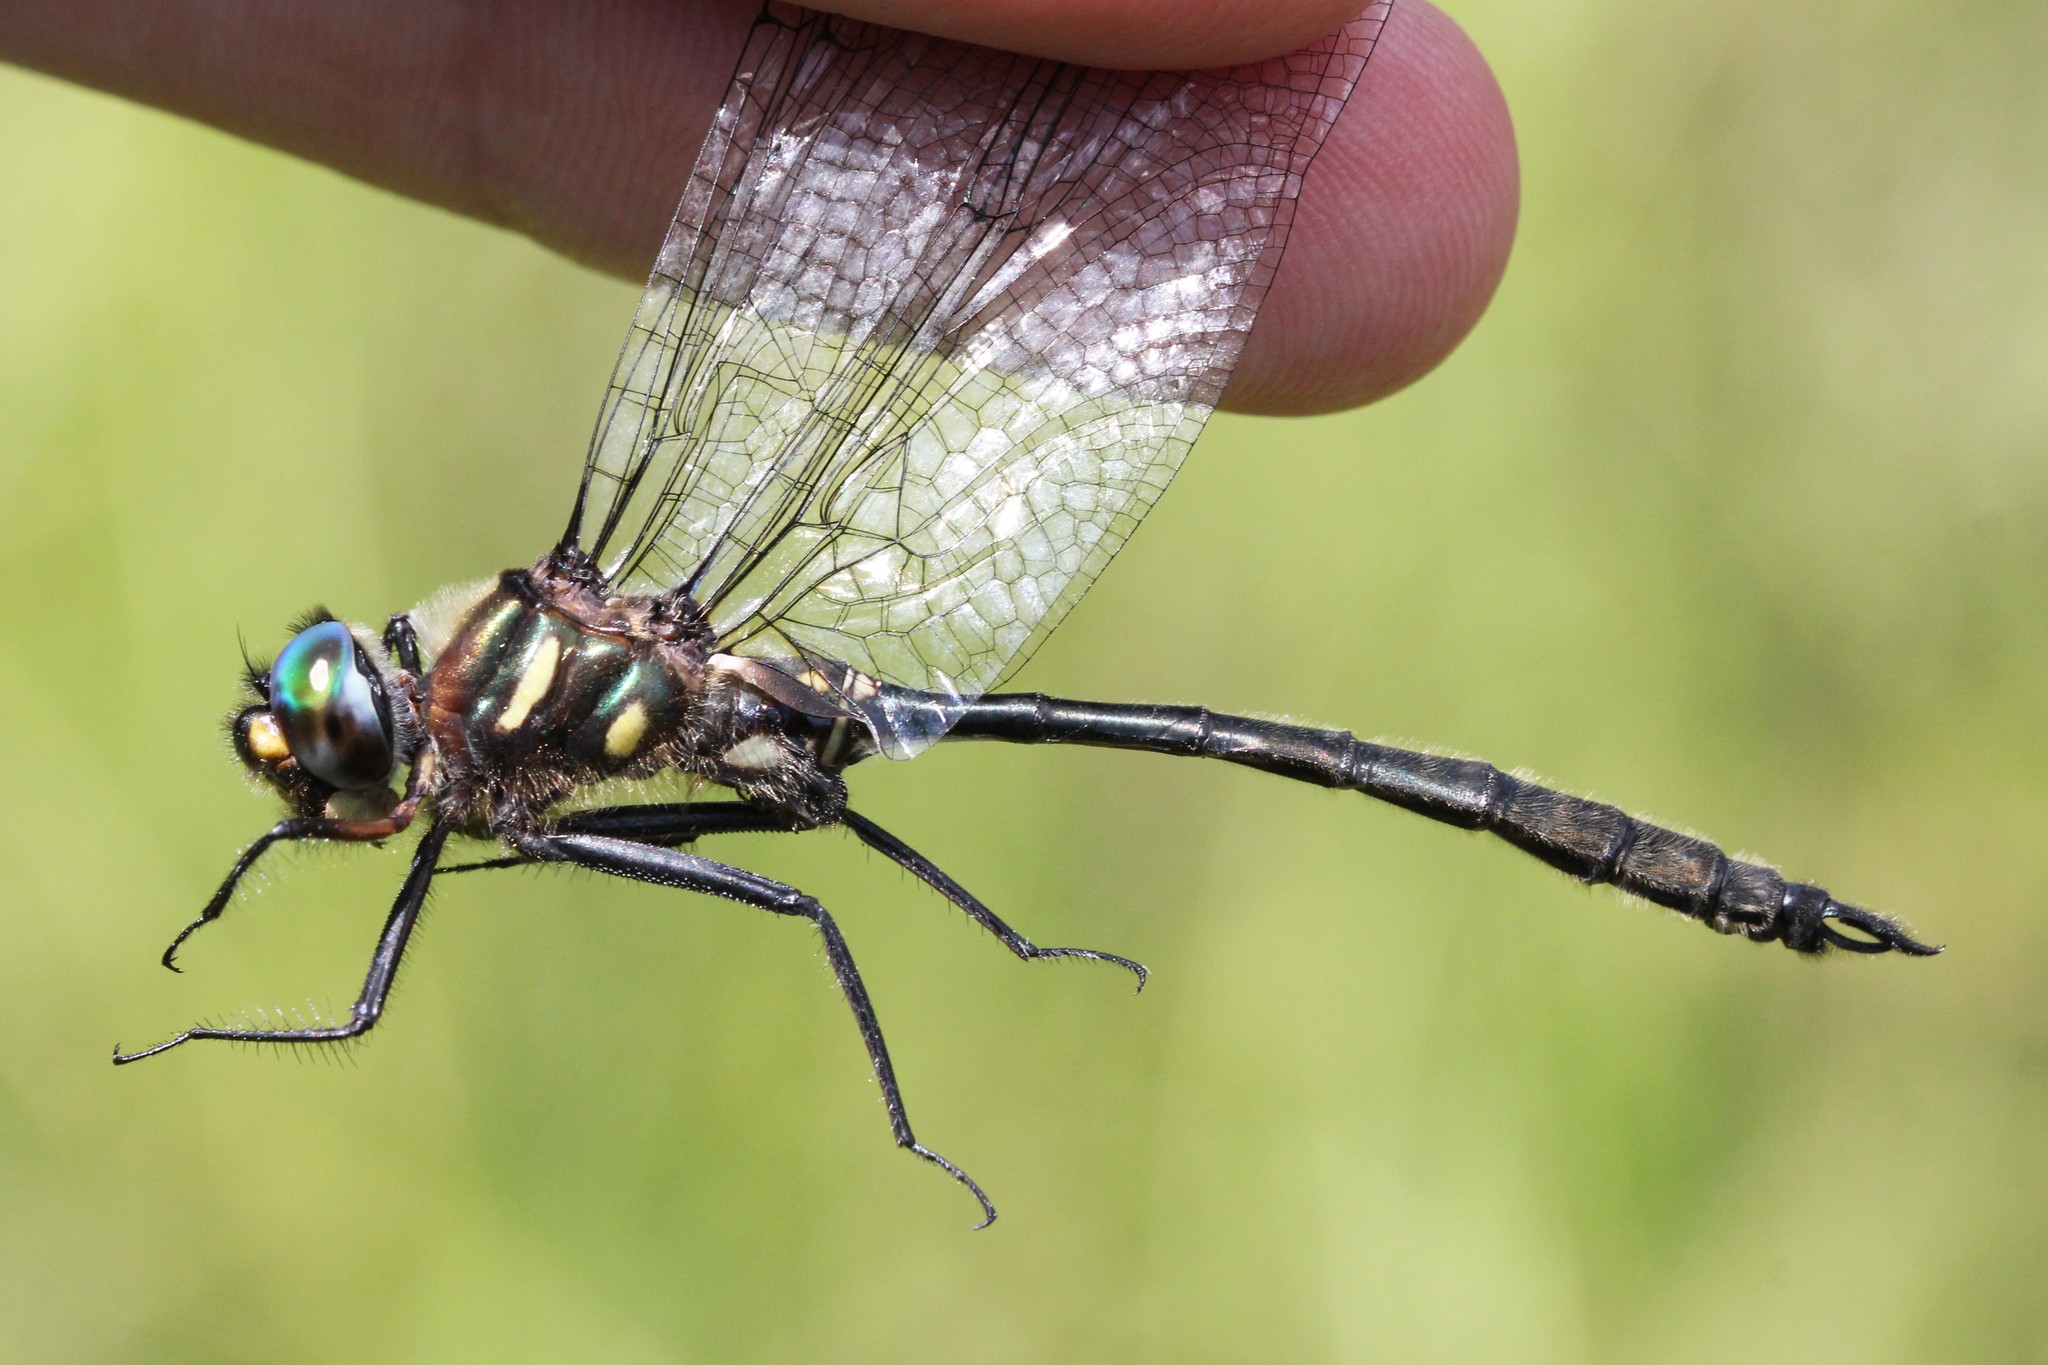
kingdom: Animalia
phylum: Arthropoda
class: Insecta
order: Odonata
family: Corduliidae
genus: Somatochlora
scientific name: Somatochlora elongata
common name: Ski-tipped emerald
